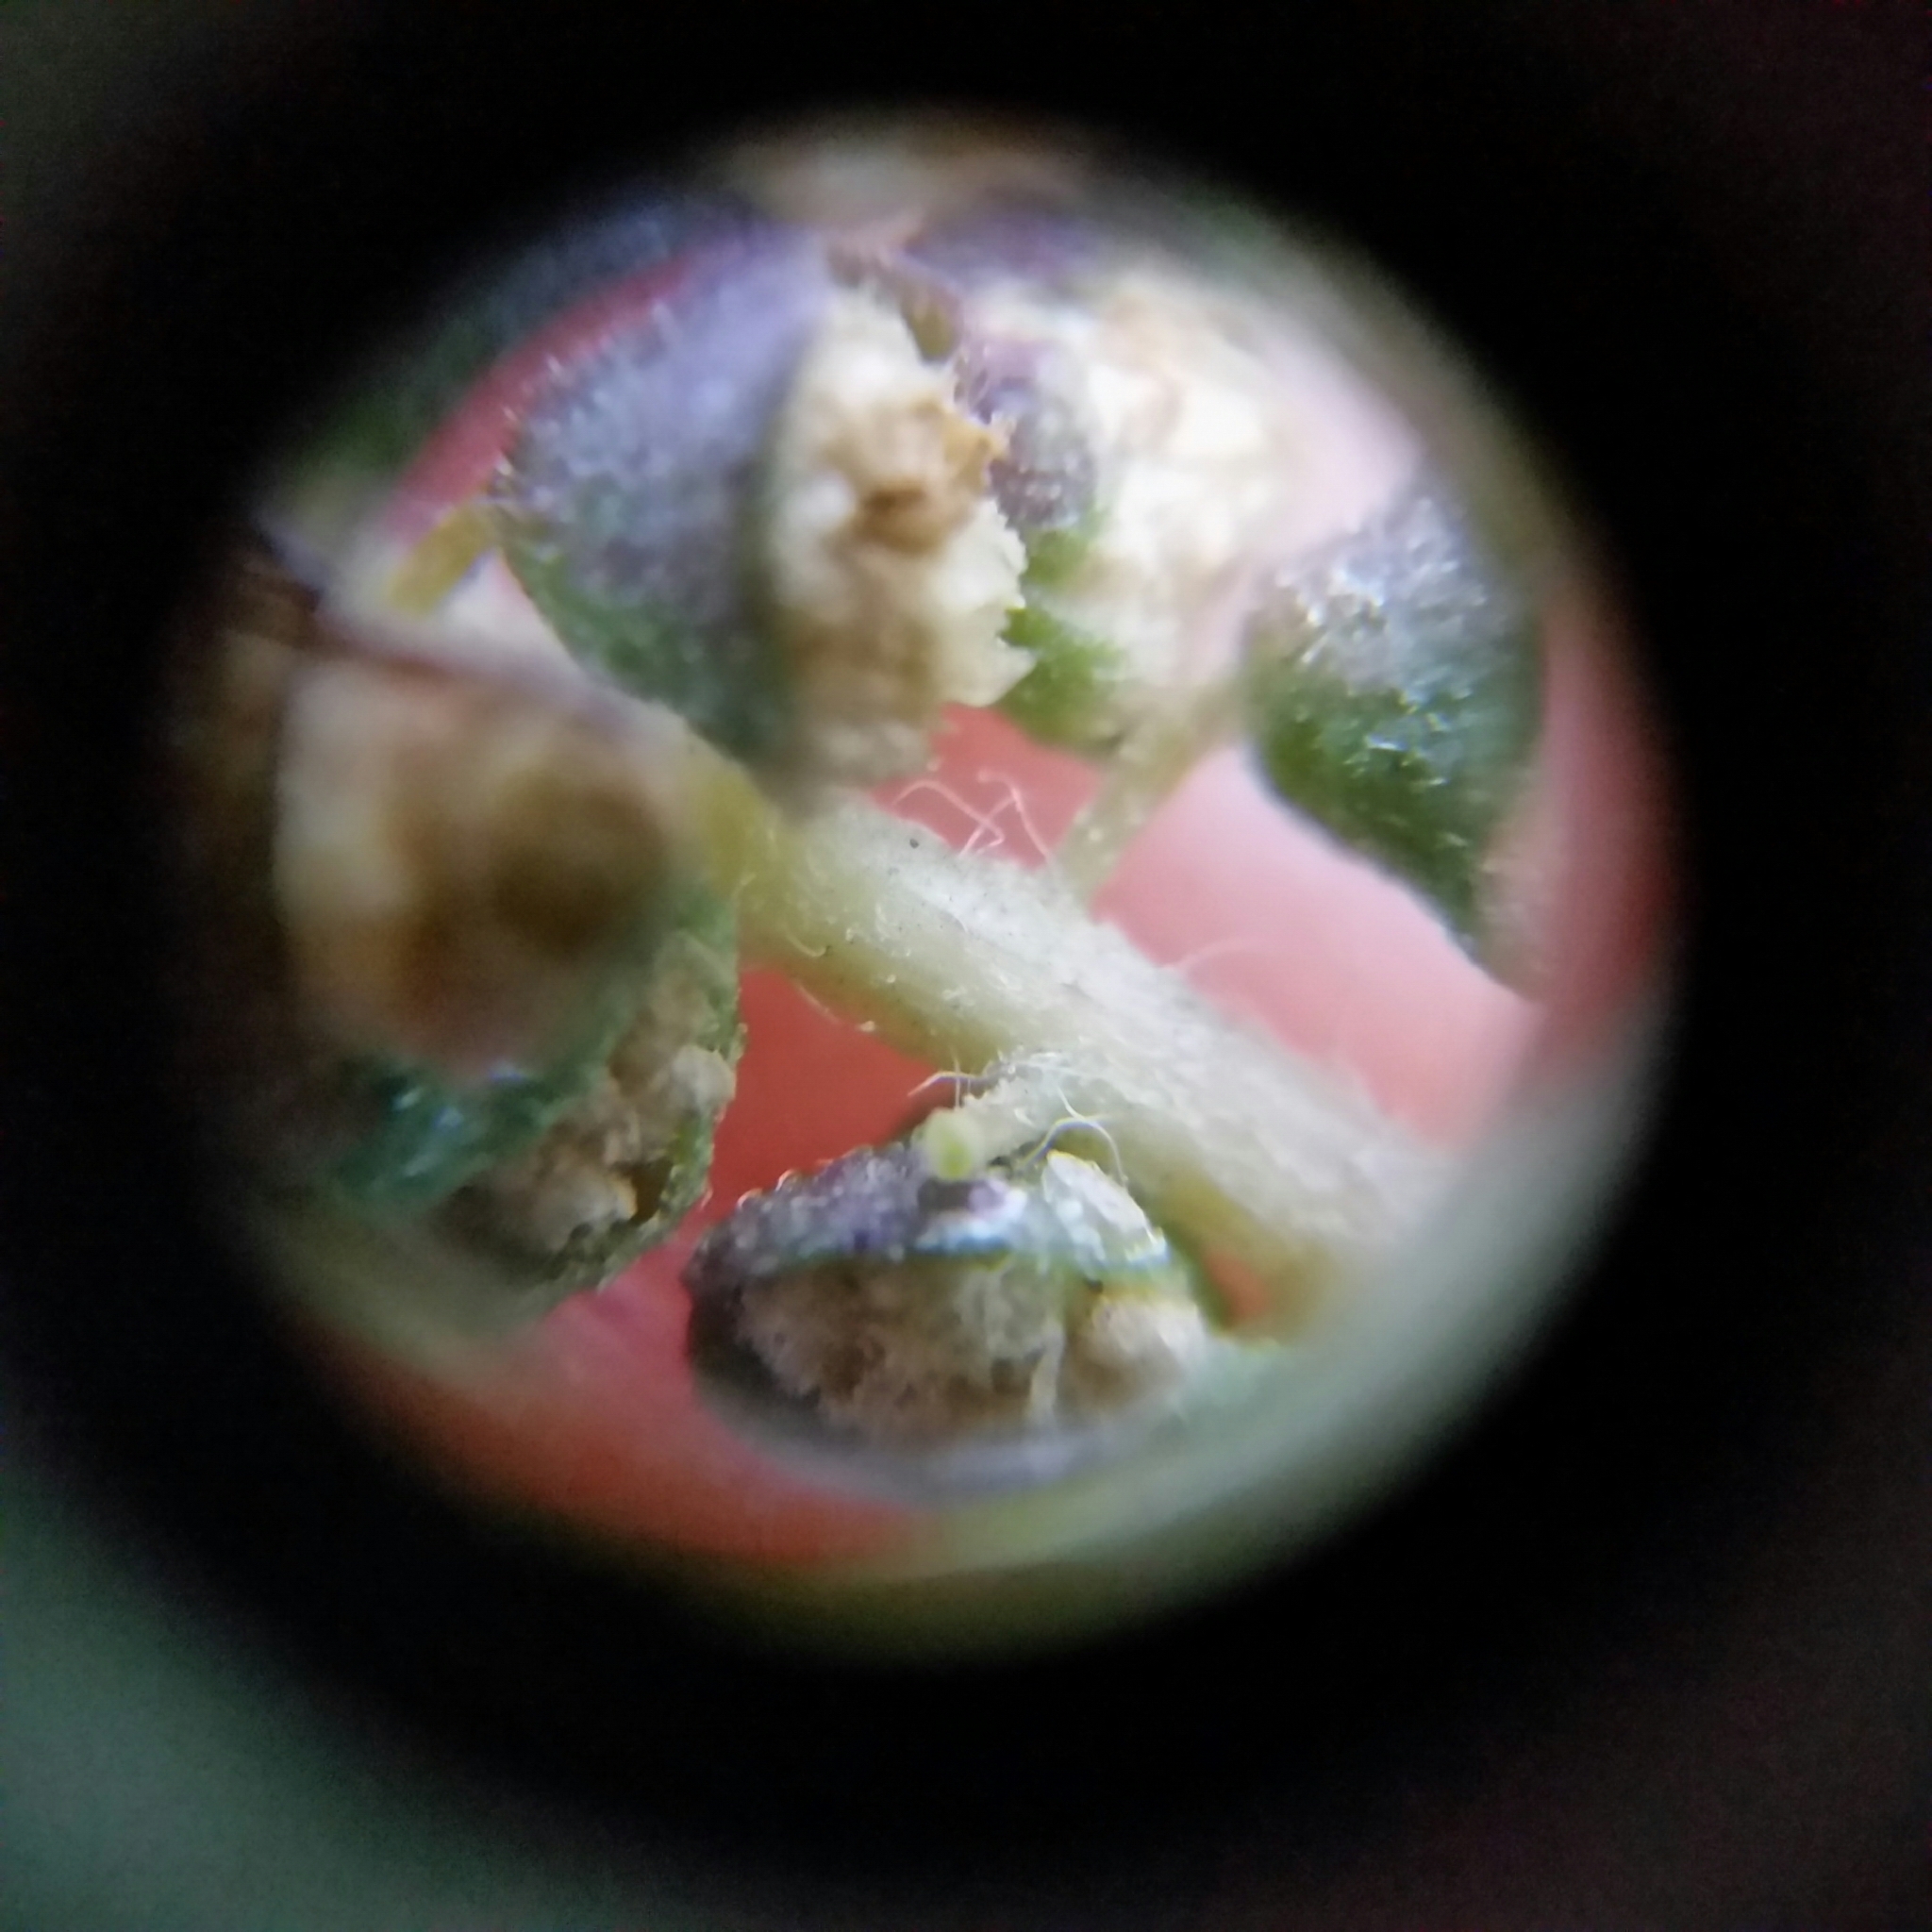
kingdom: Plantae
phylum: Tracheophyta
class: Magnoliopsida
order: Asterales
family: Asteraceae
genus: Ambrosia
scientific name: Ambrosia psilostachya
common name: Perennial ragweed
